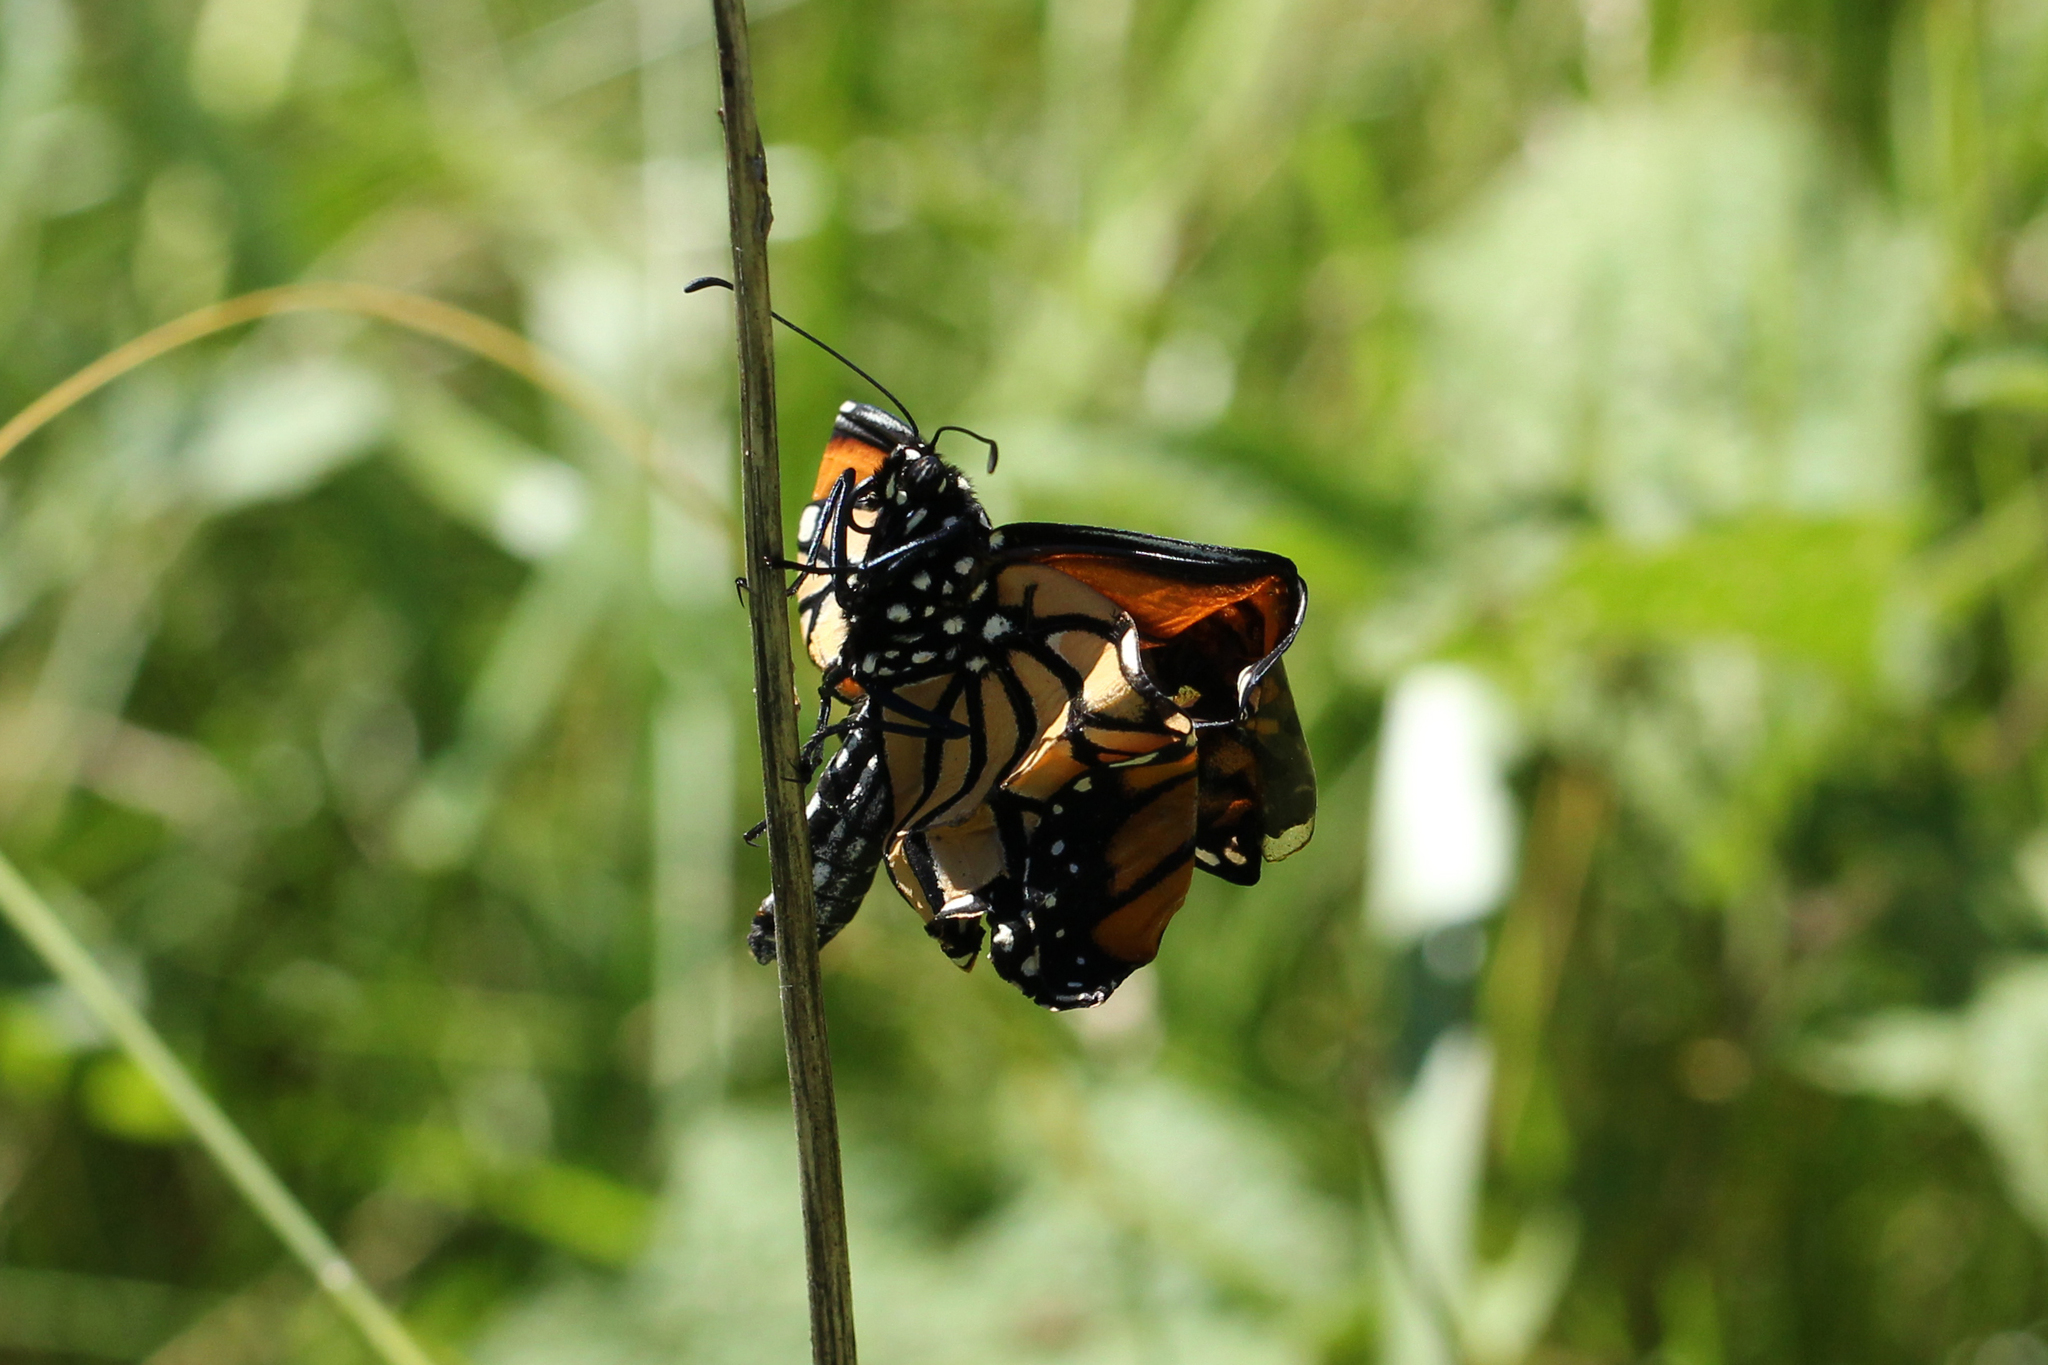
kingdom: Animalia
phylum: Arthropoda
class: Insecta
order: Lepidoptera
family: Nymphalidae
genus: Danaus
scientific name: Danaus plexippus
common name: Monarch
